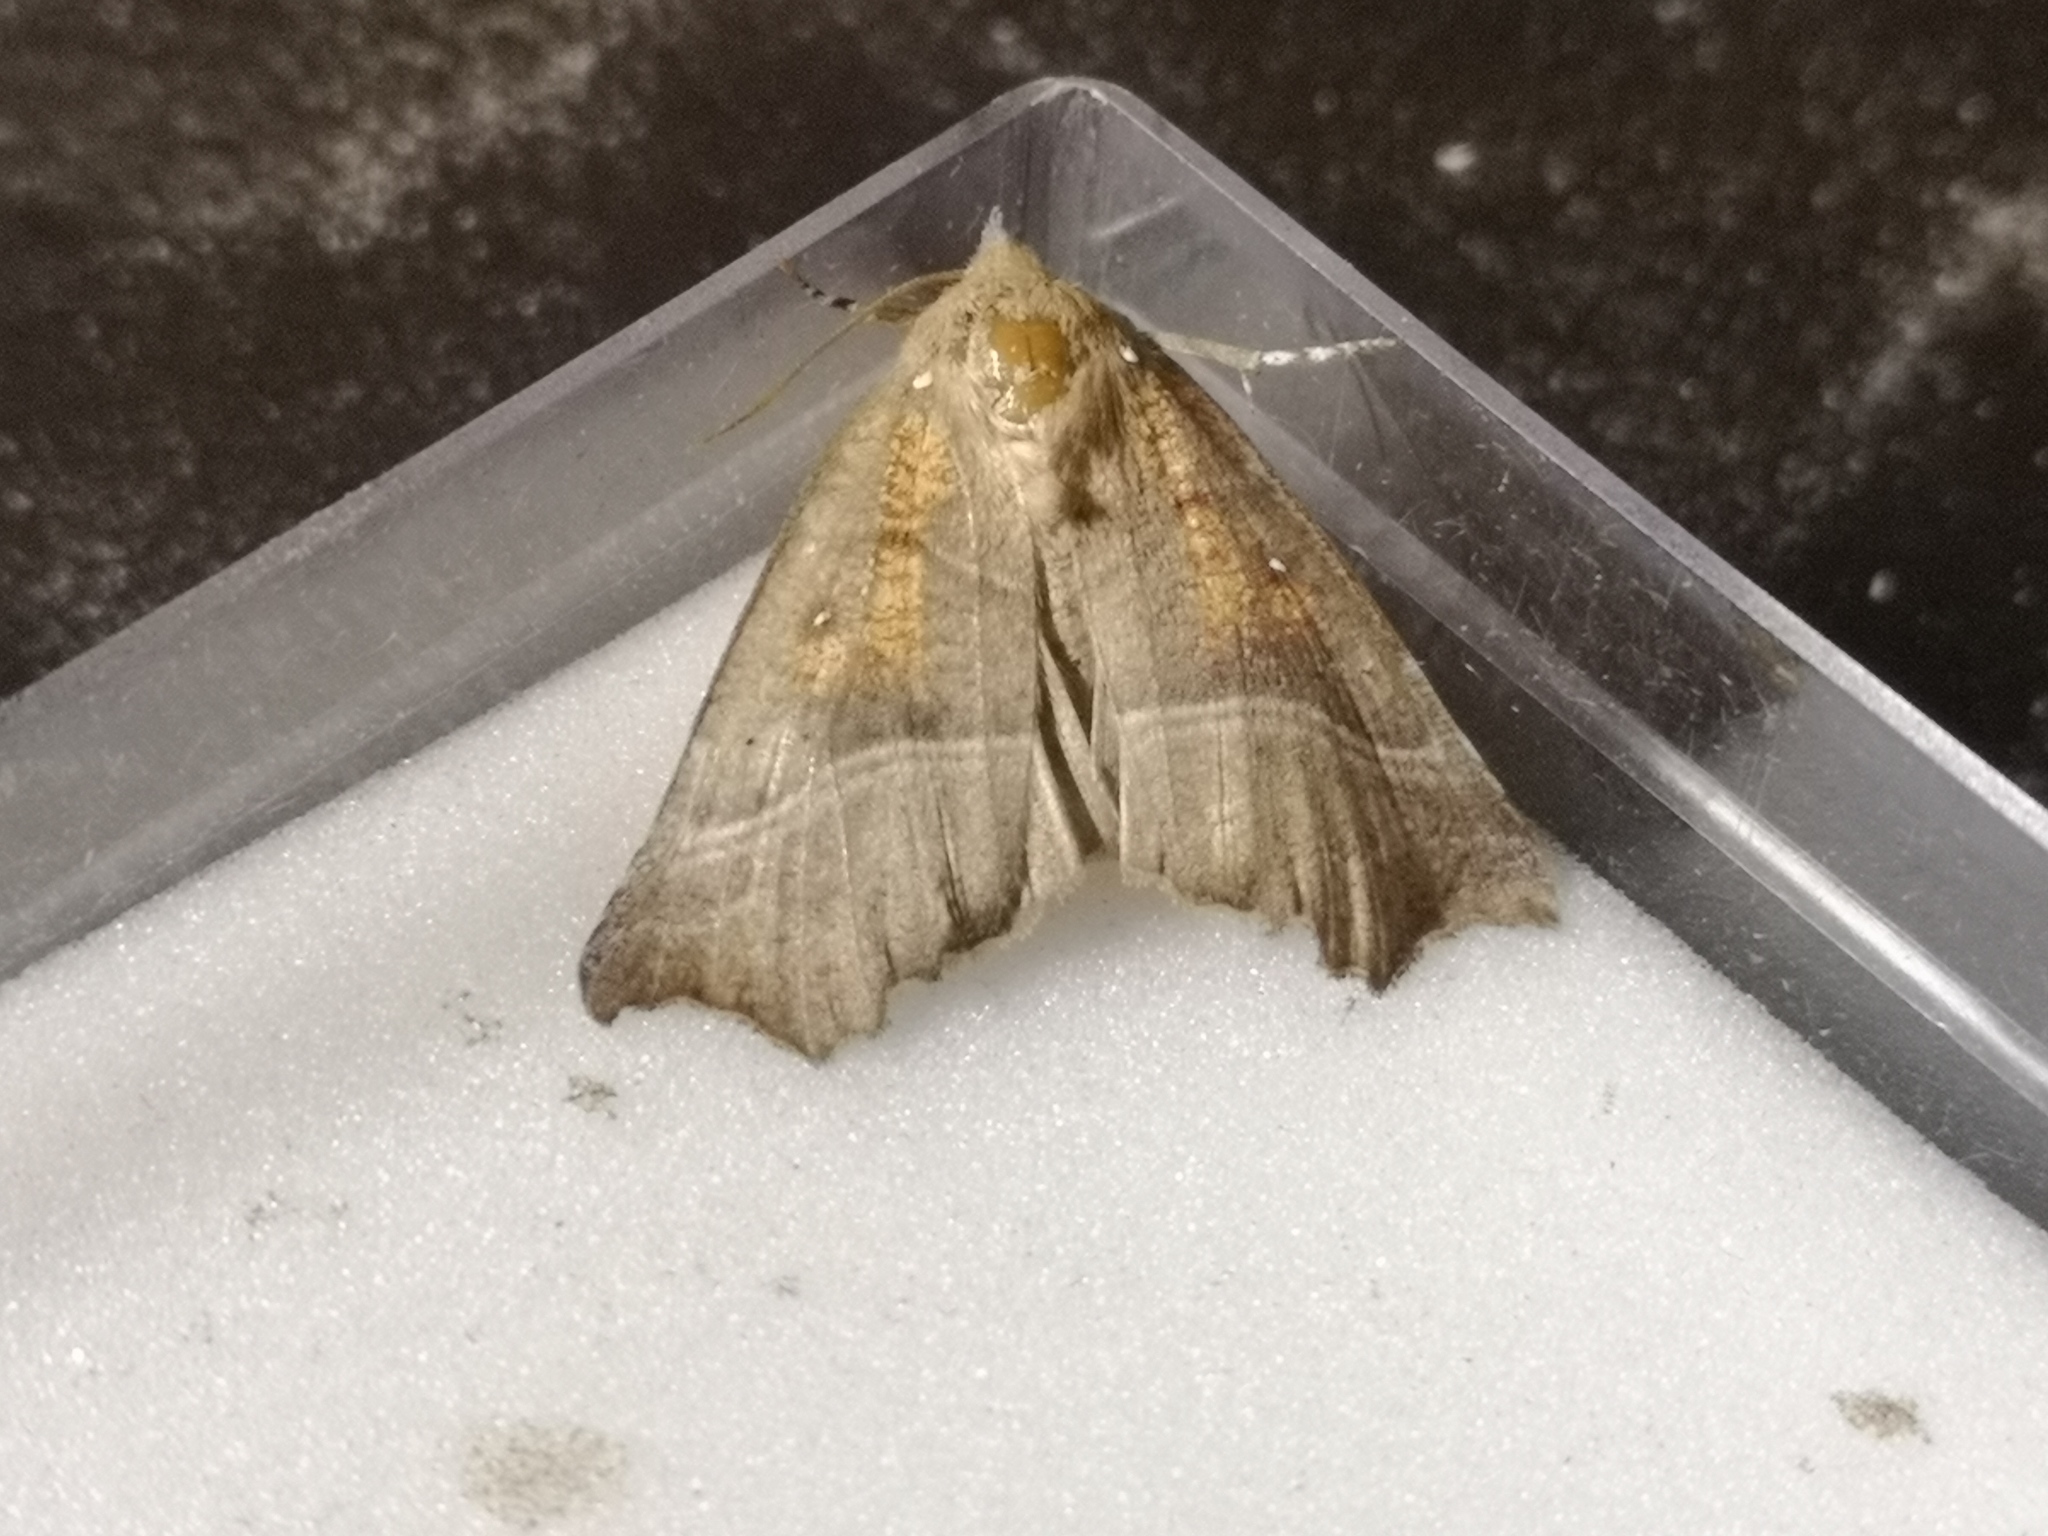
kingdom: Animalia
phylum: Arthropoda
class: Insecta
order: Lepidoptera
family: Erebidae
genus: Scoliopteryx
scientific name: Scoliopteryx libatrix
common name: Herald
